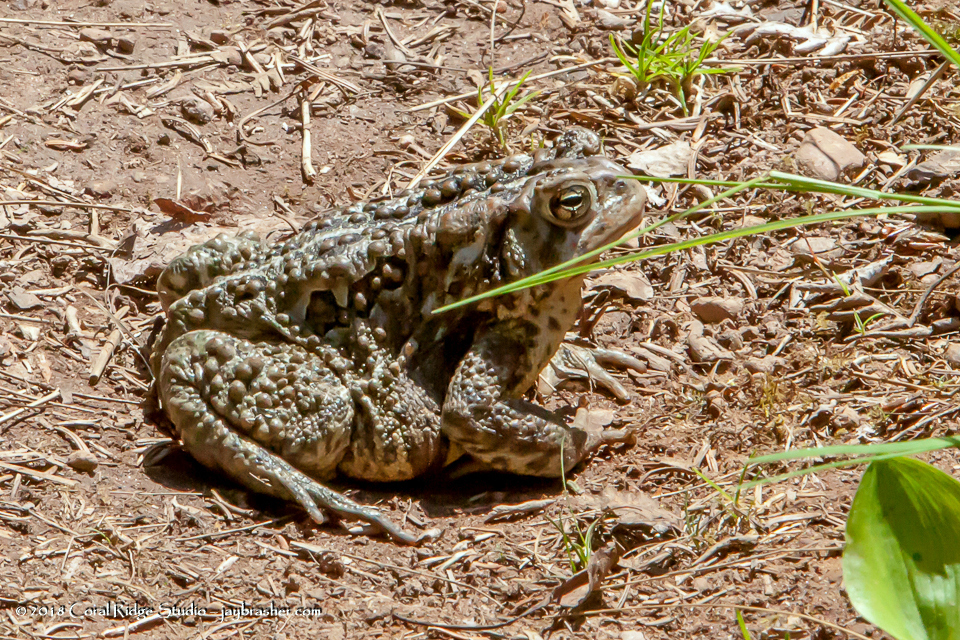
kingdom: Animalia
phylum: Chordata
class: Amphibia
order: Anura
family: Bufonidae
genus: Anaxyrus
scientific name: Anaxyrus americanus
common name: American toad
